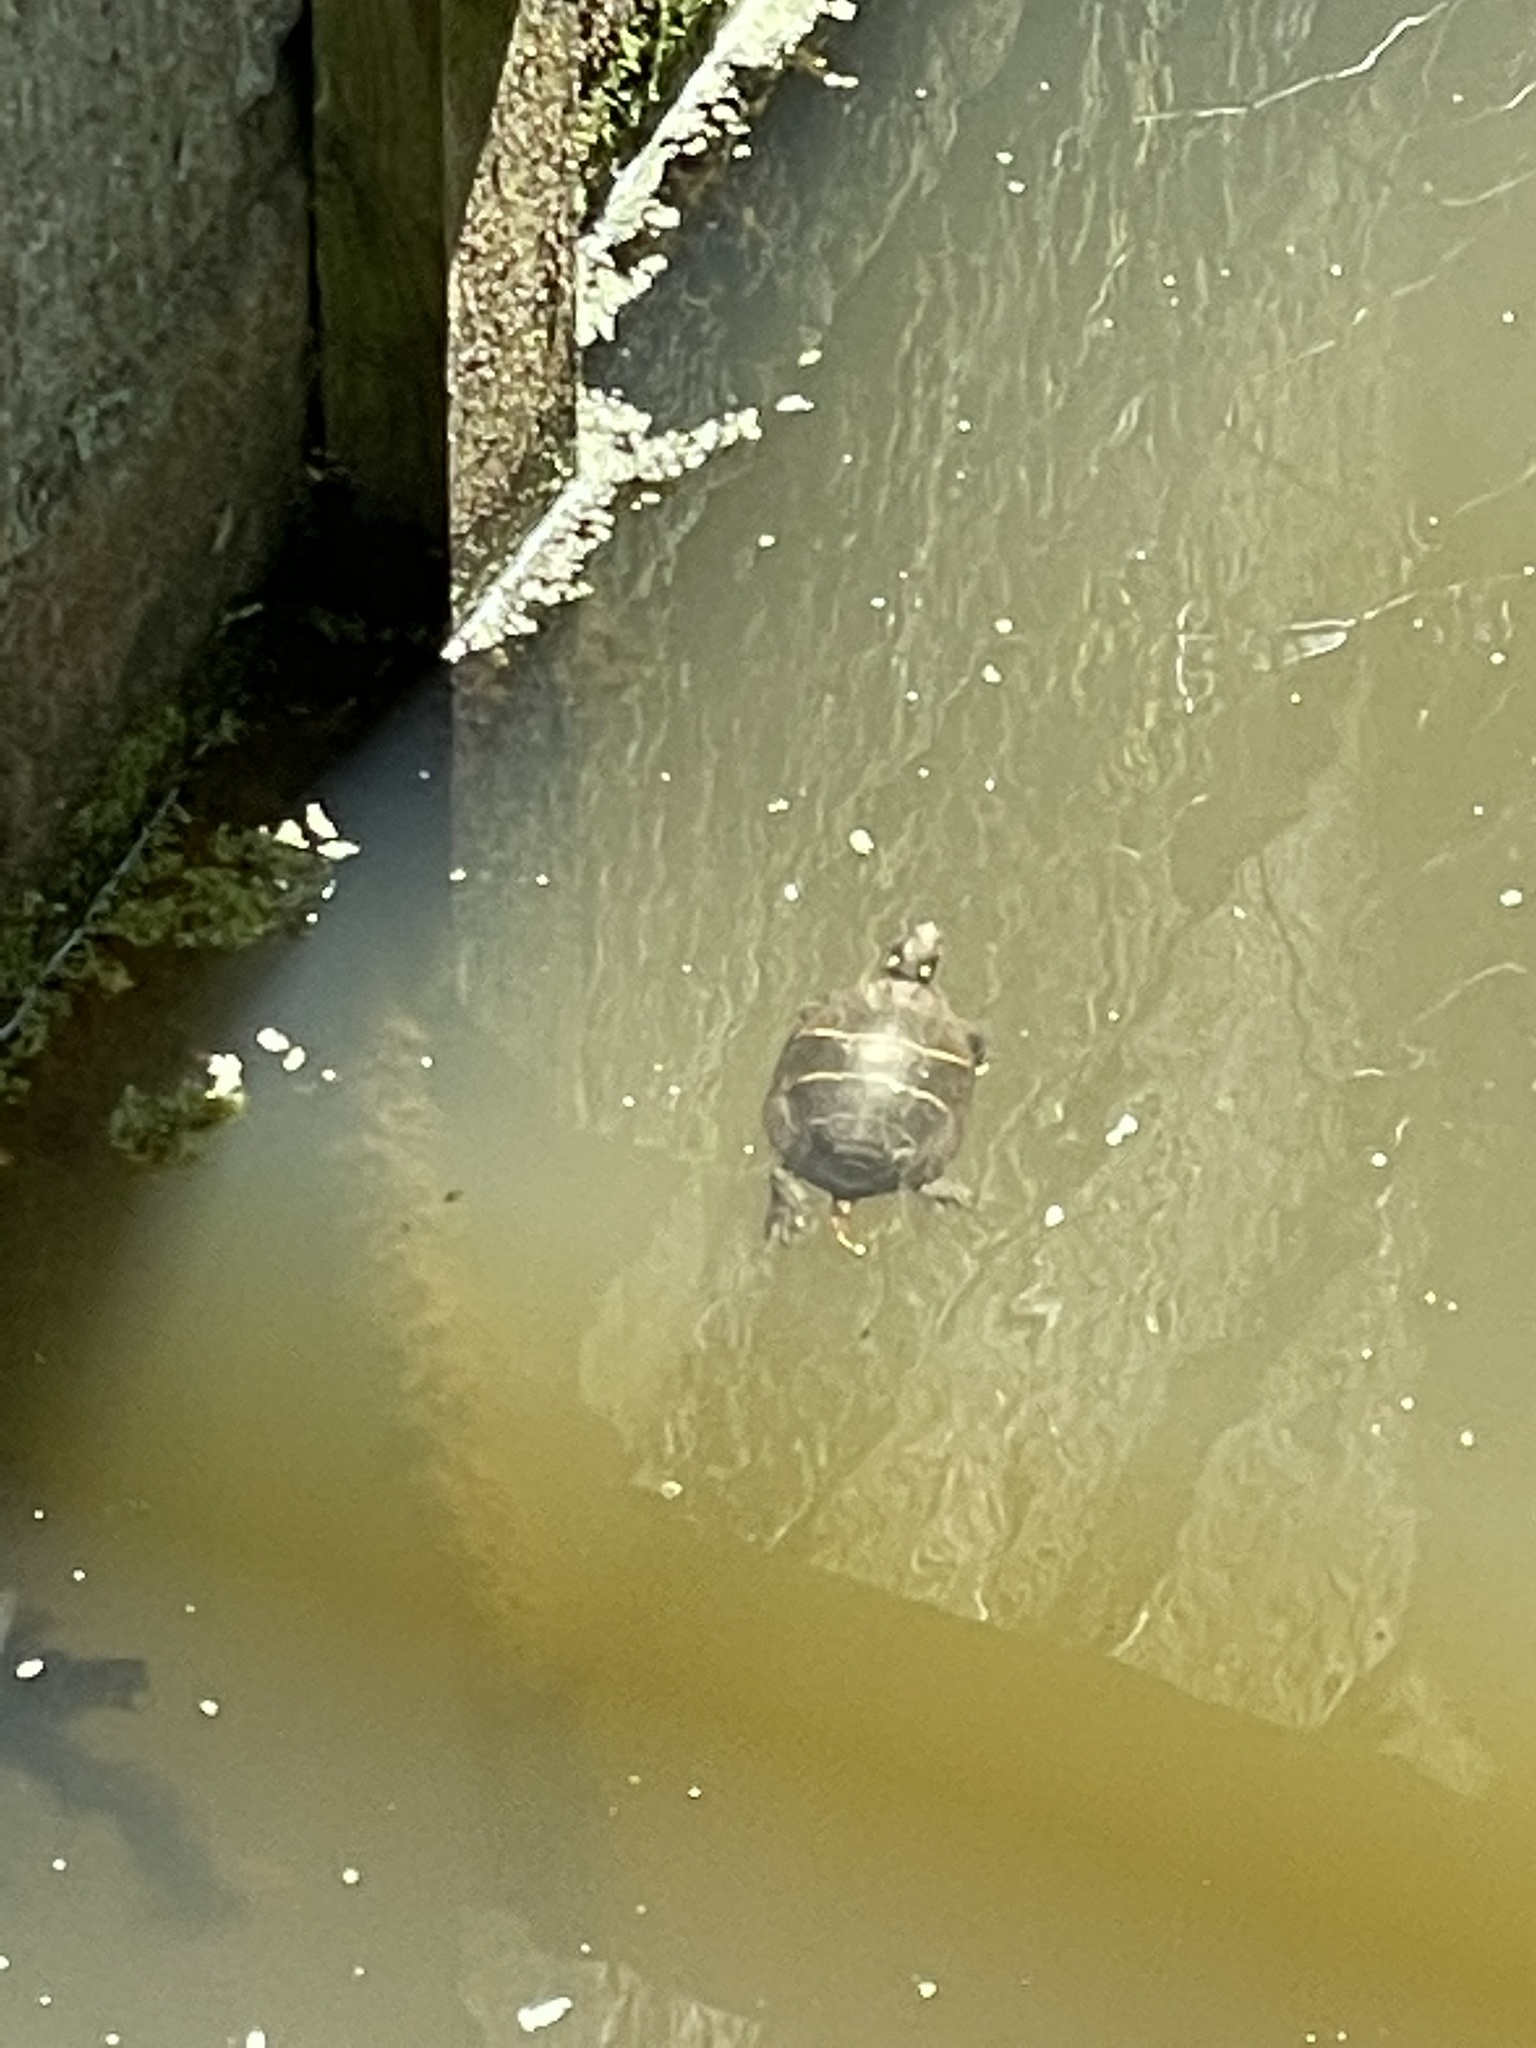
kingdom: Animalia
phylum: Chordata
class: Testudines
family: Emydidae
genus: Chrysemys
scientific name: Chrysemys picta
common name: Painted turtle
